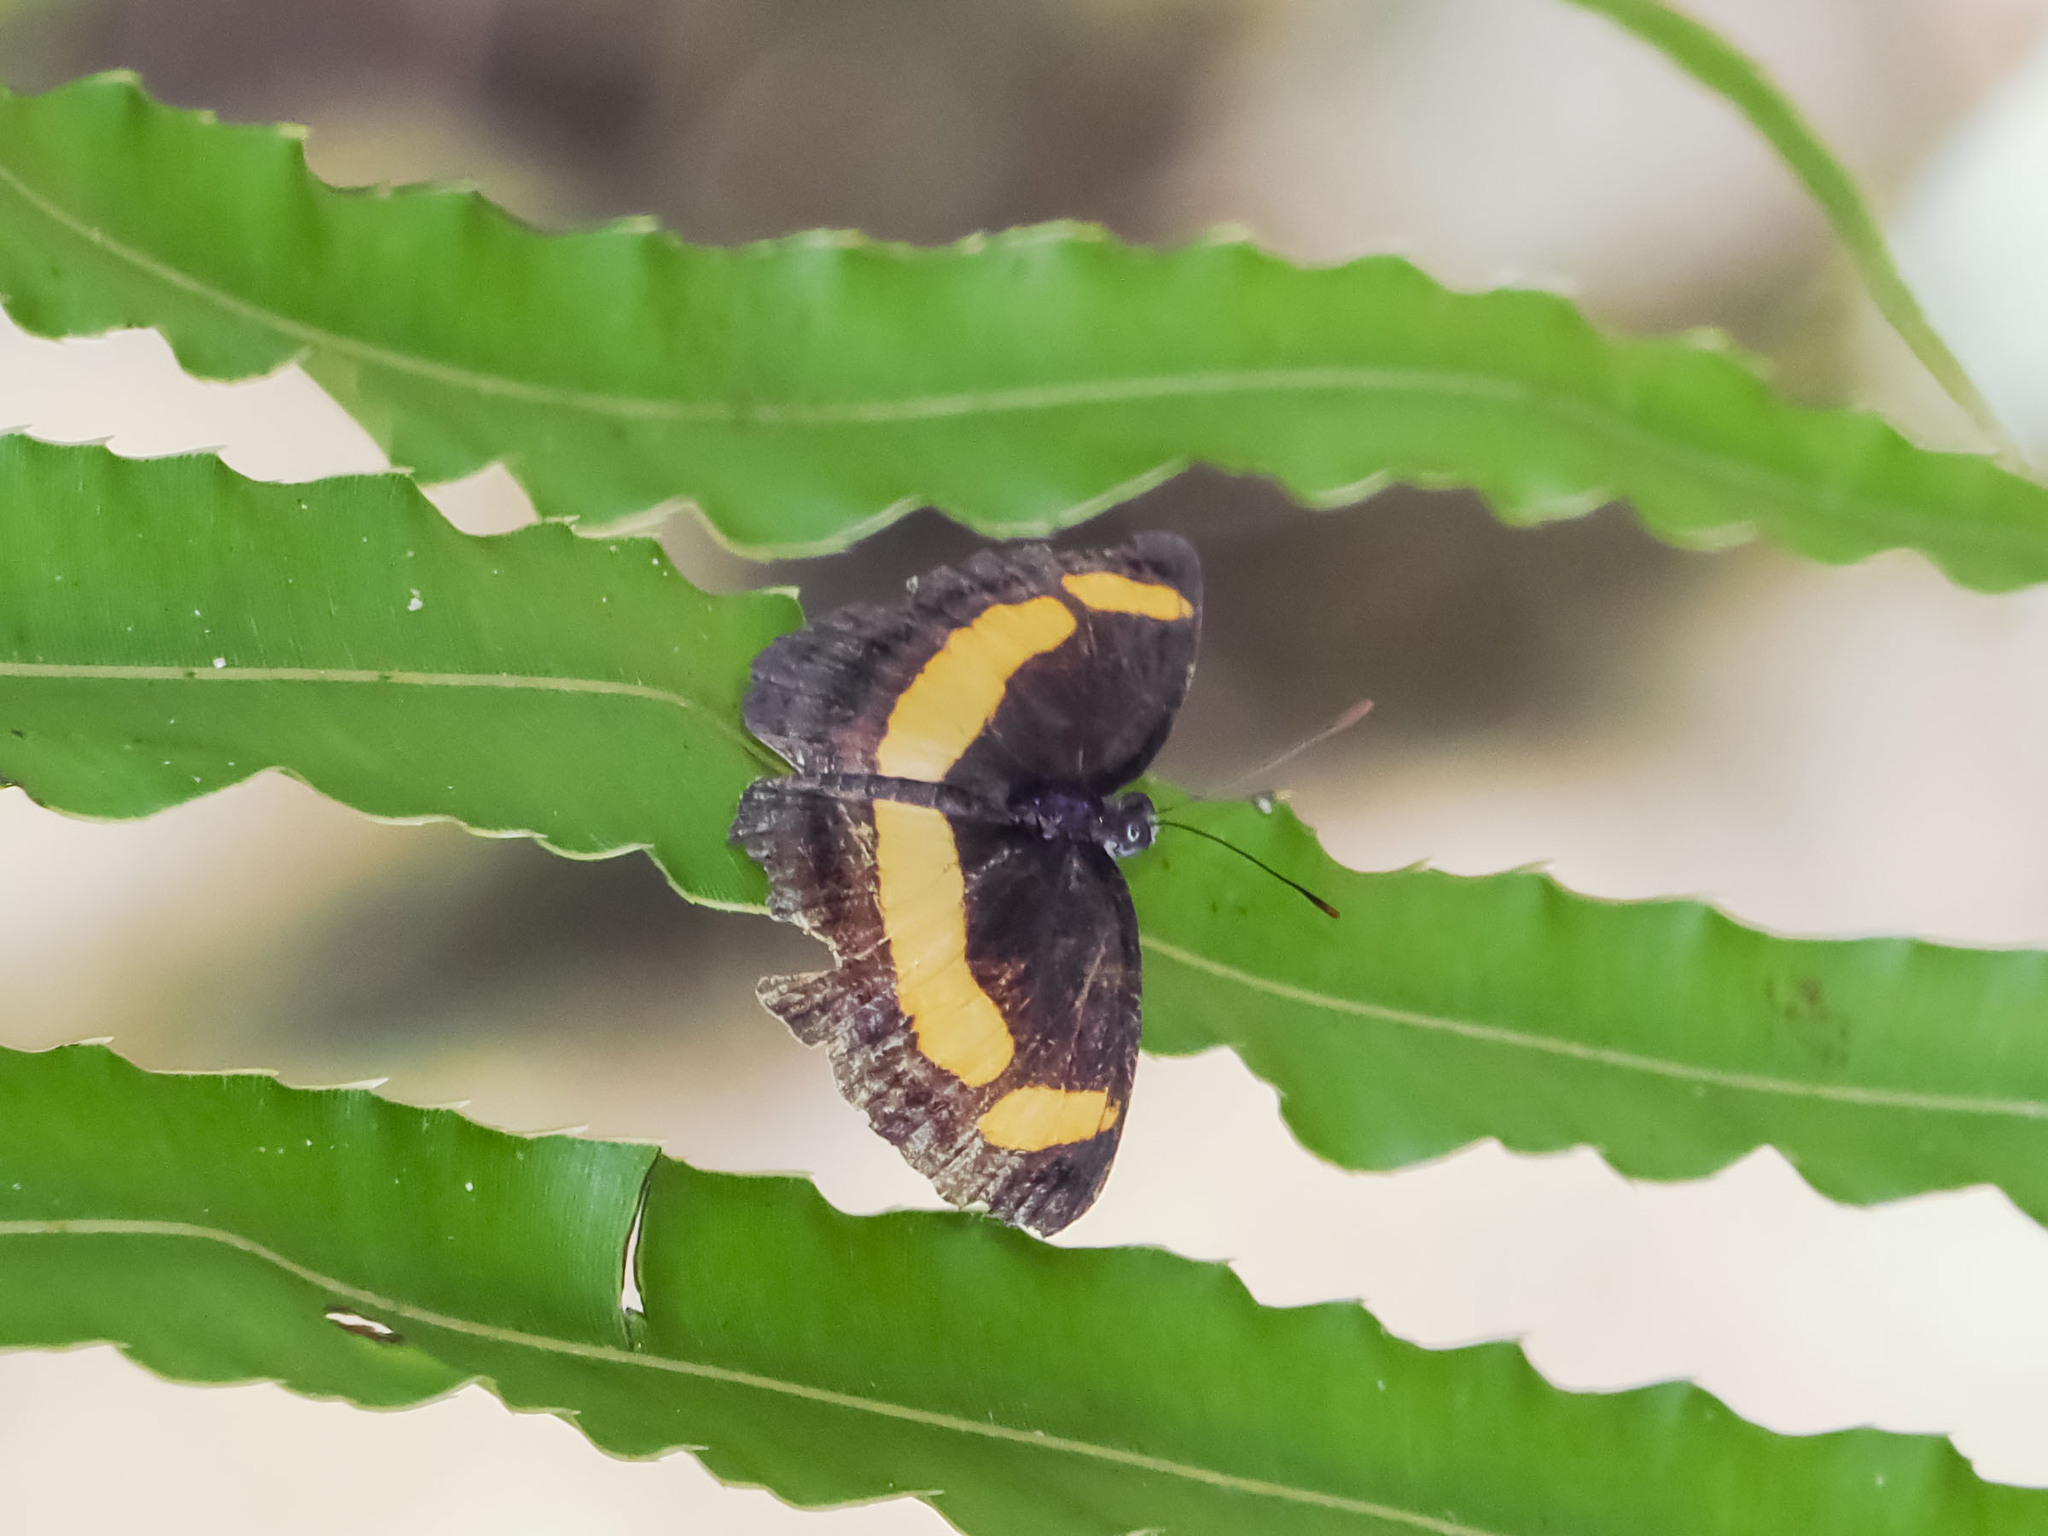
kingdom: Animalia
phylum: Arthropoda
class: Insecta
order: Lepidoptera
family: Nymphalidae
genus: Pantoporia
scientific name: Pantoporia consimilis
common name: Orange plane
